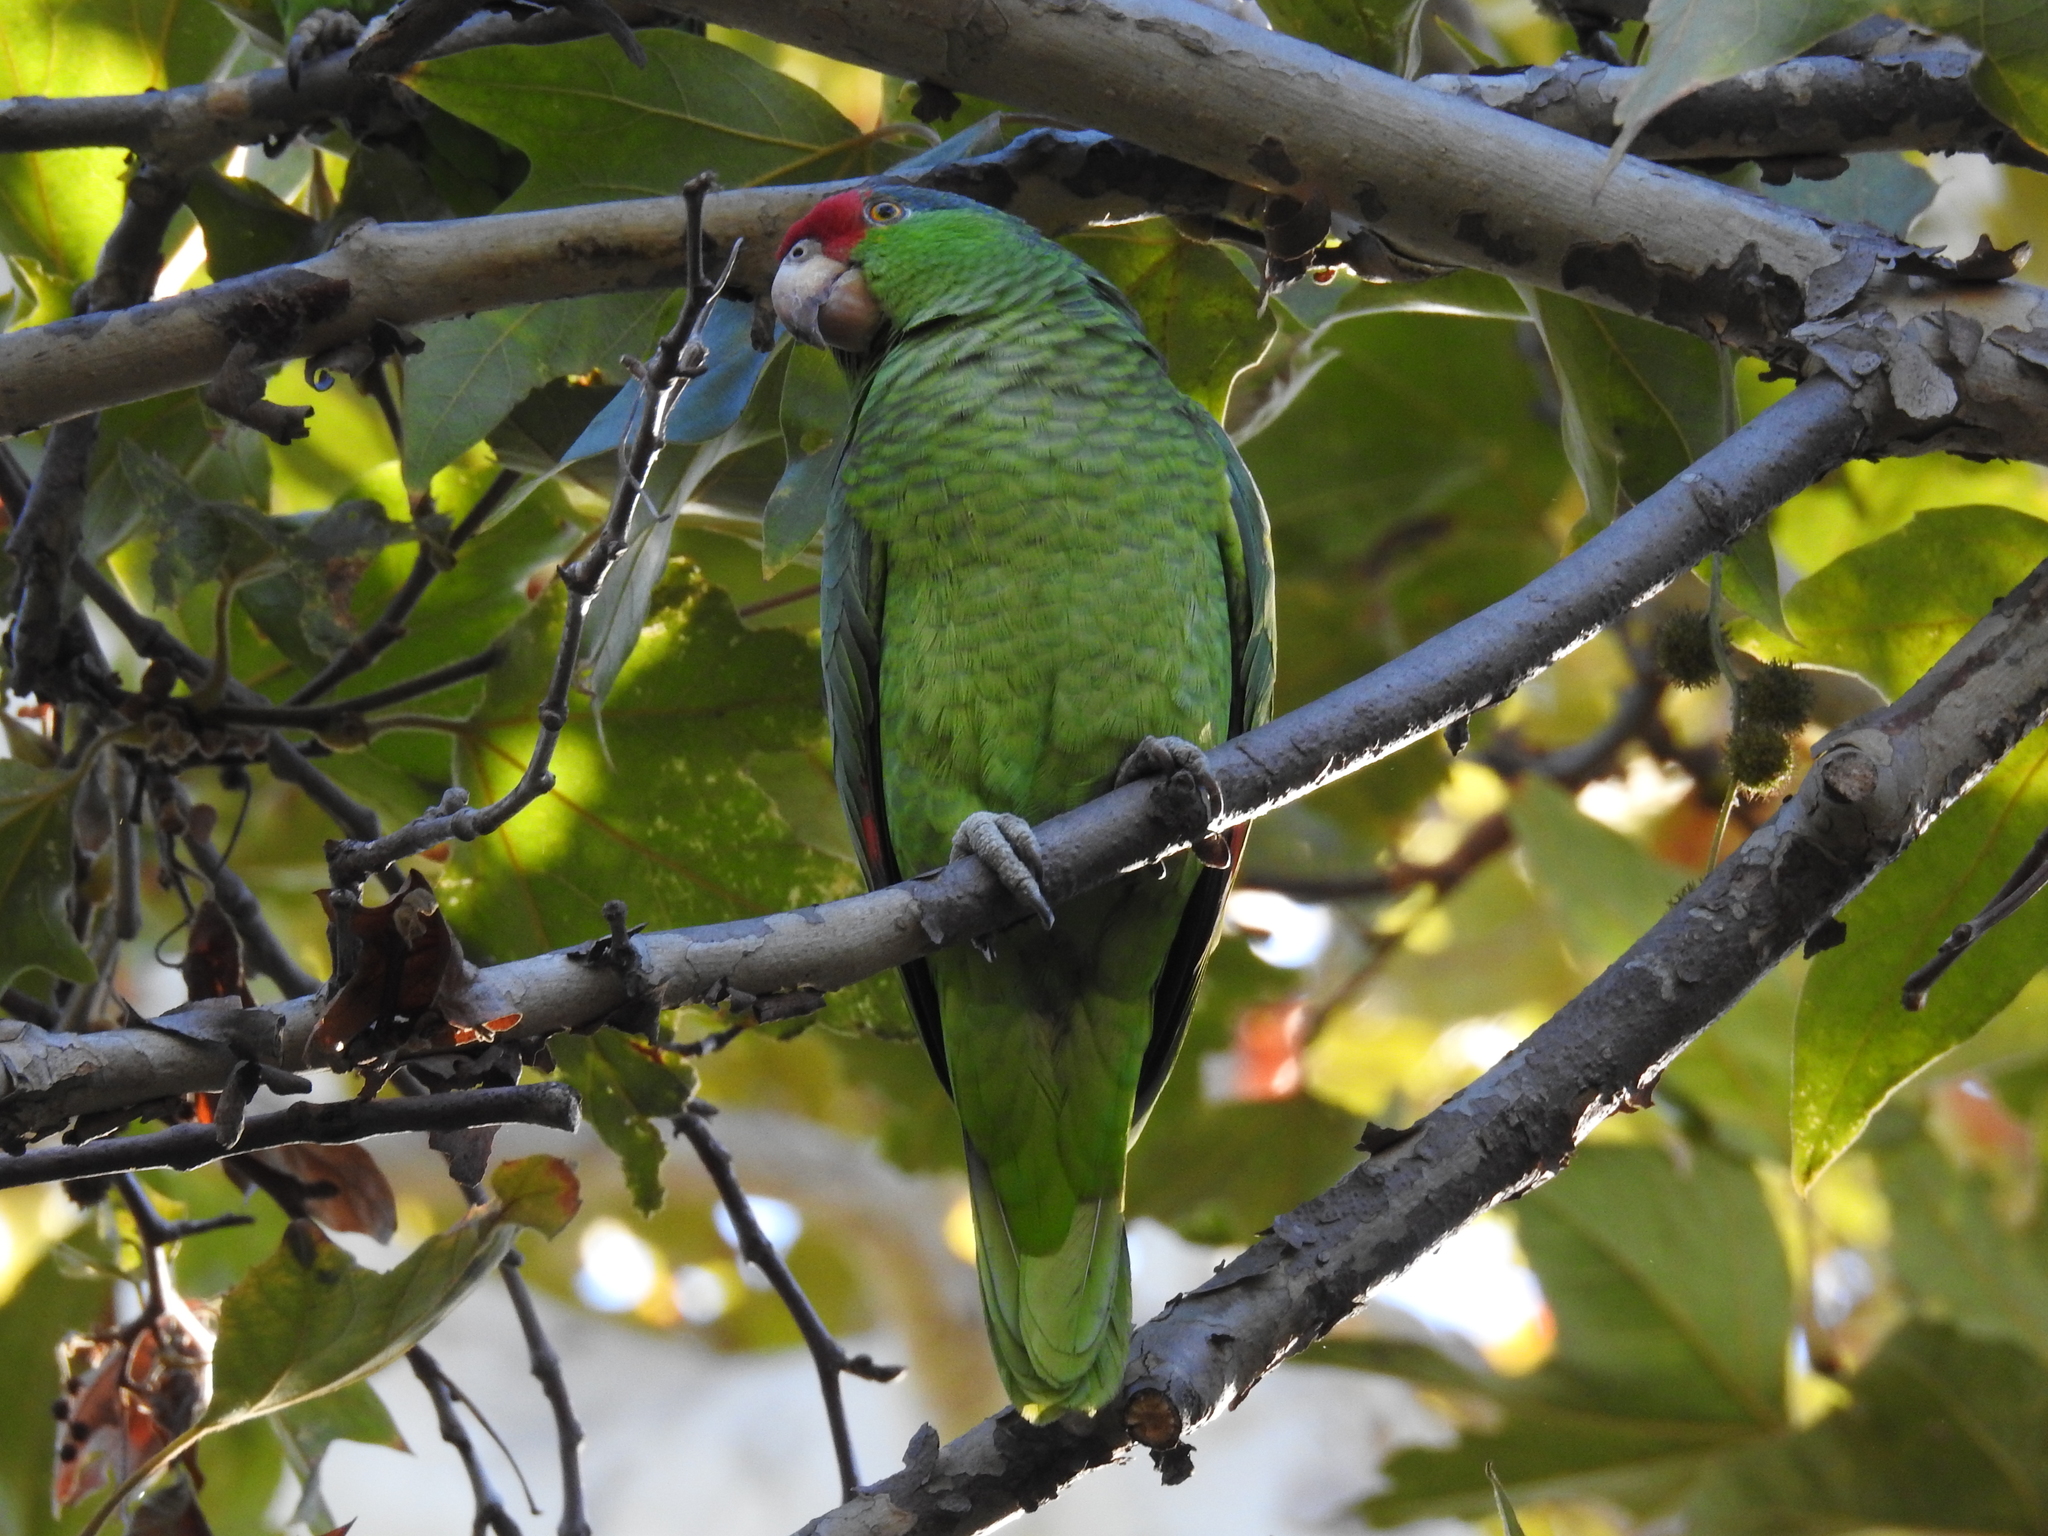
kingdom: Animalia
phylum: Chordata
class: Aves
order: Psittaciformes
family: Psittacidae
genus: Amazona
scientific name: Amazona viridigenalis
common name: Red-crowned amazon
